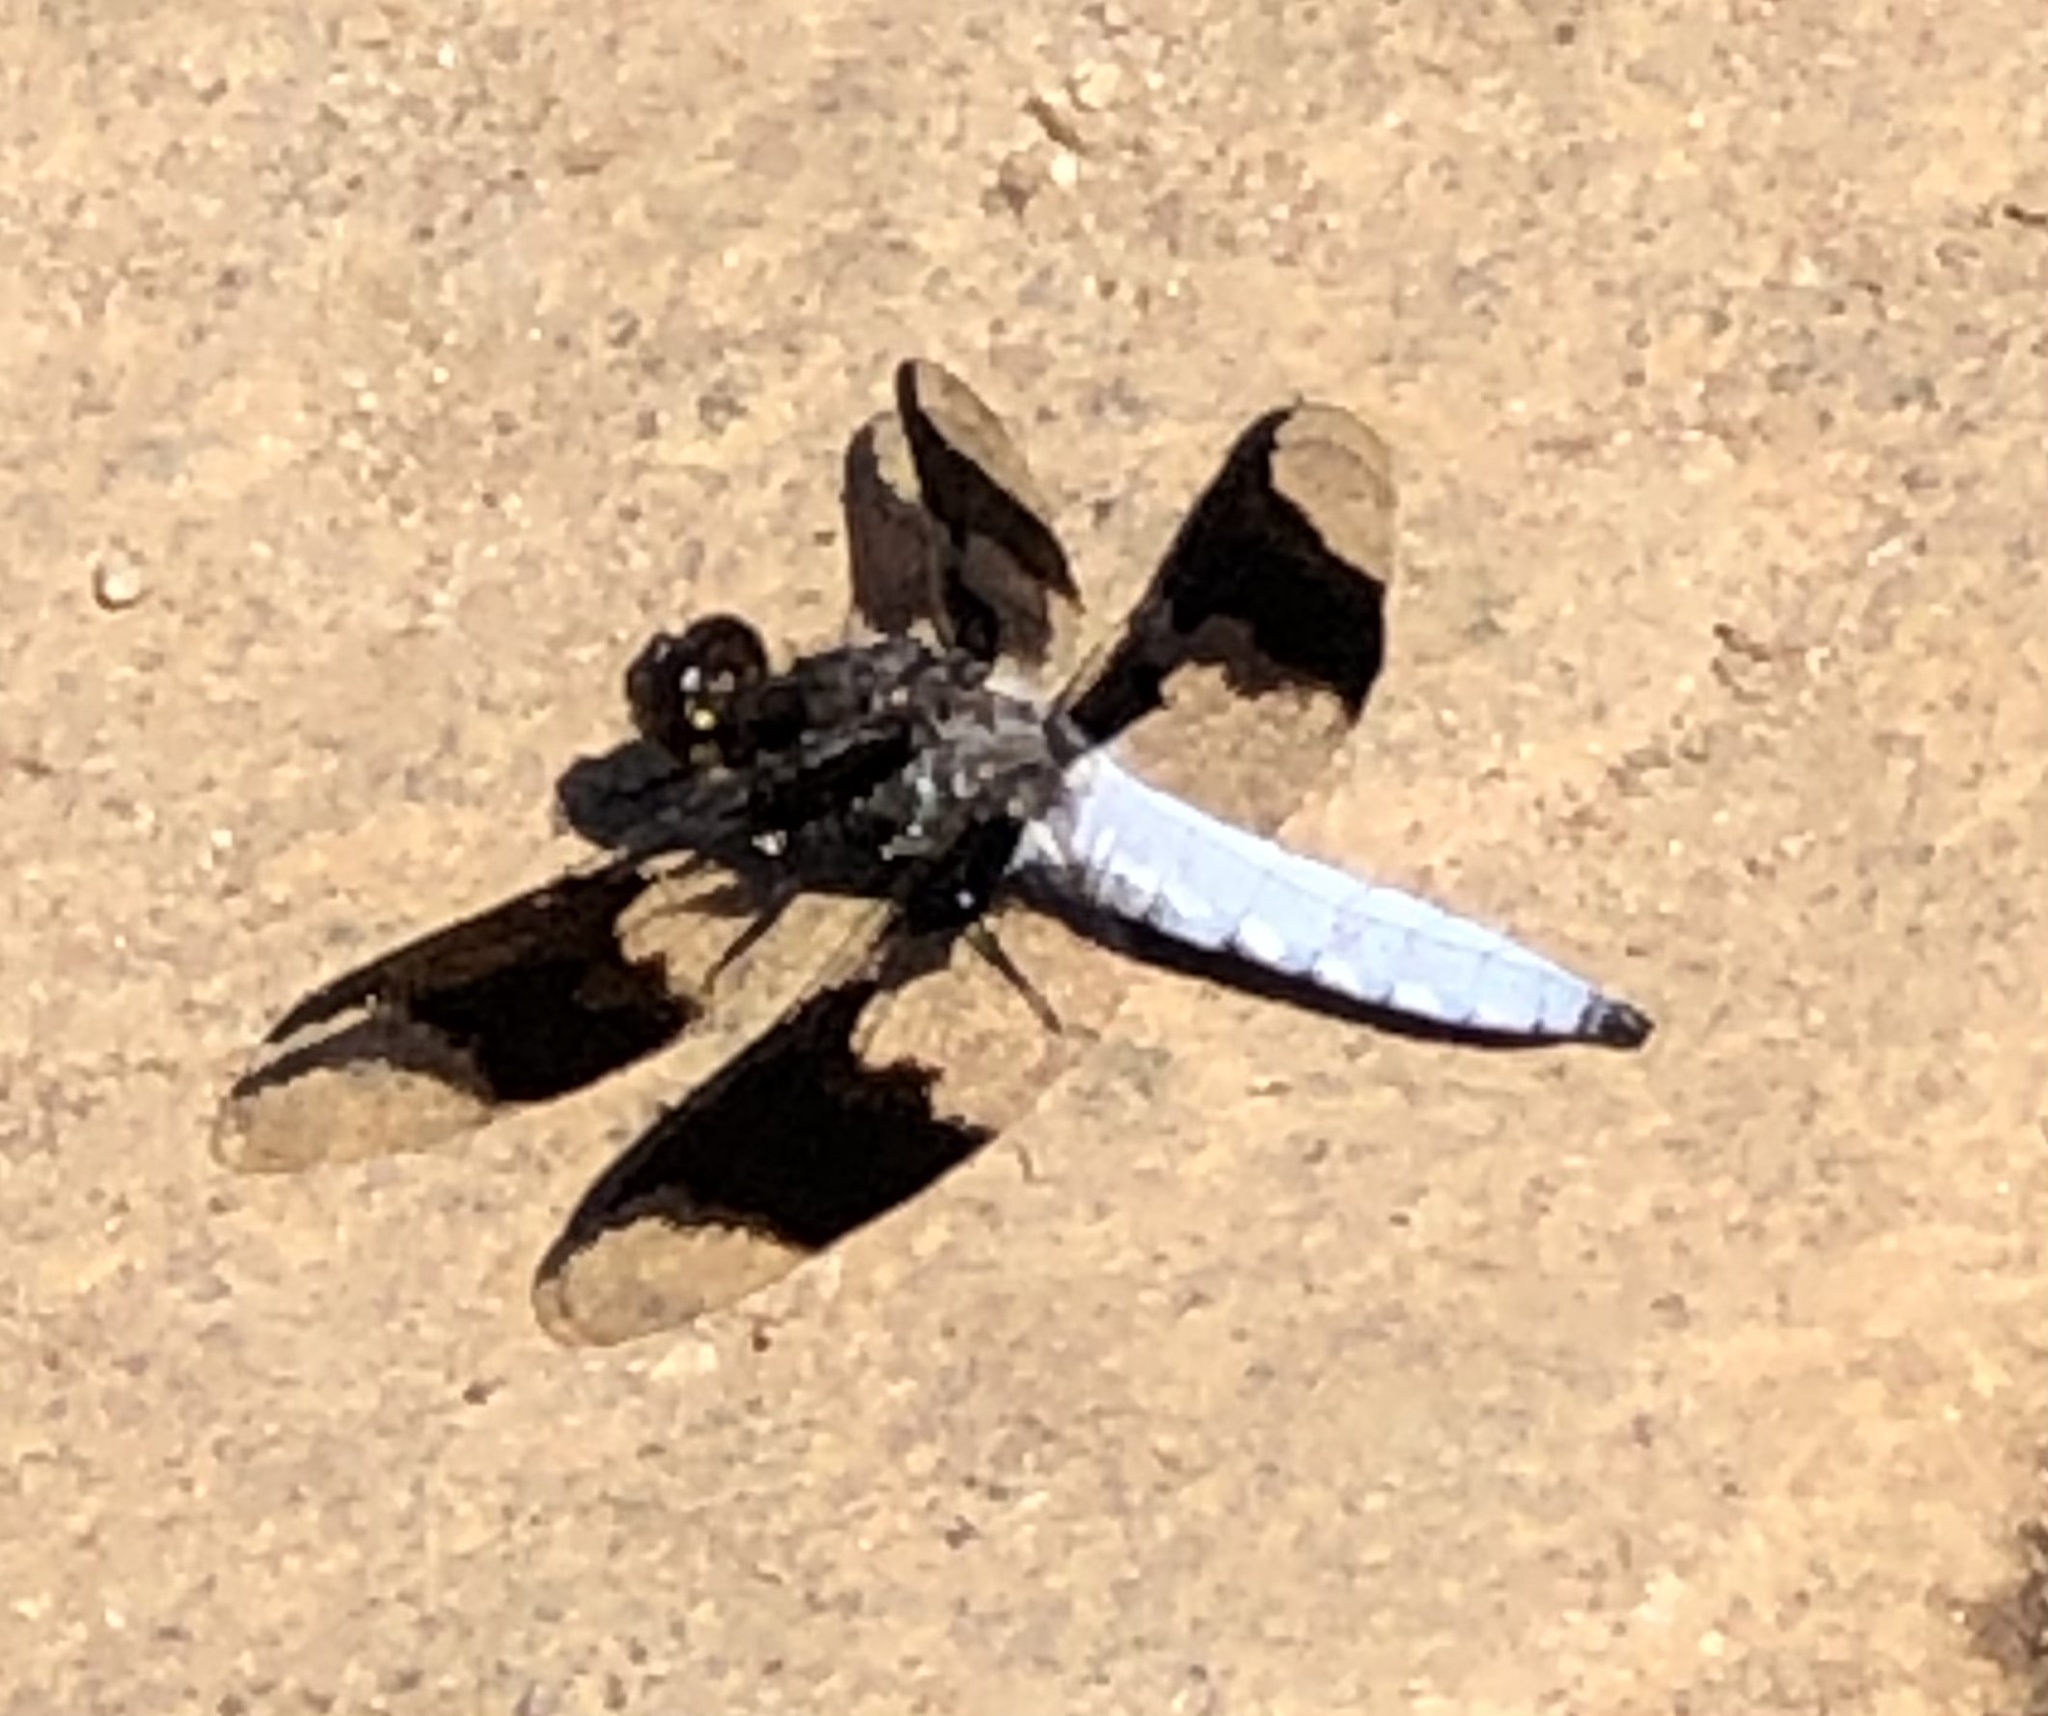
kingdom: Animalia
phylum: Arthropoda
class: Insecta
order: Odonata
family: Libellulidae
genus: Plathemis
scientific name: Plathemis lydia
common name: Common whitetail
